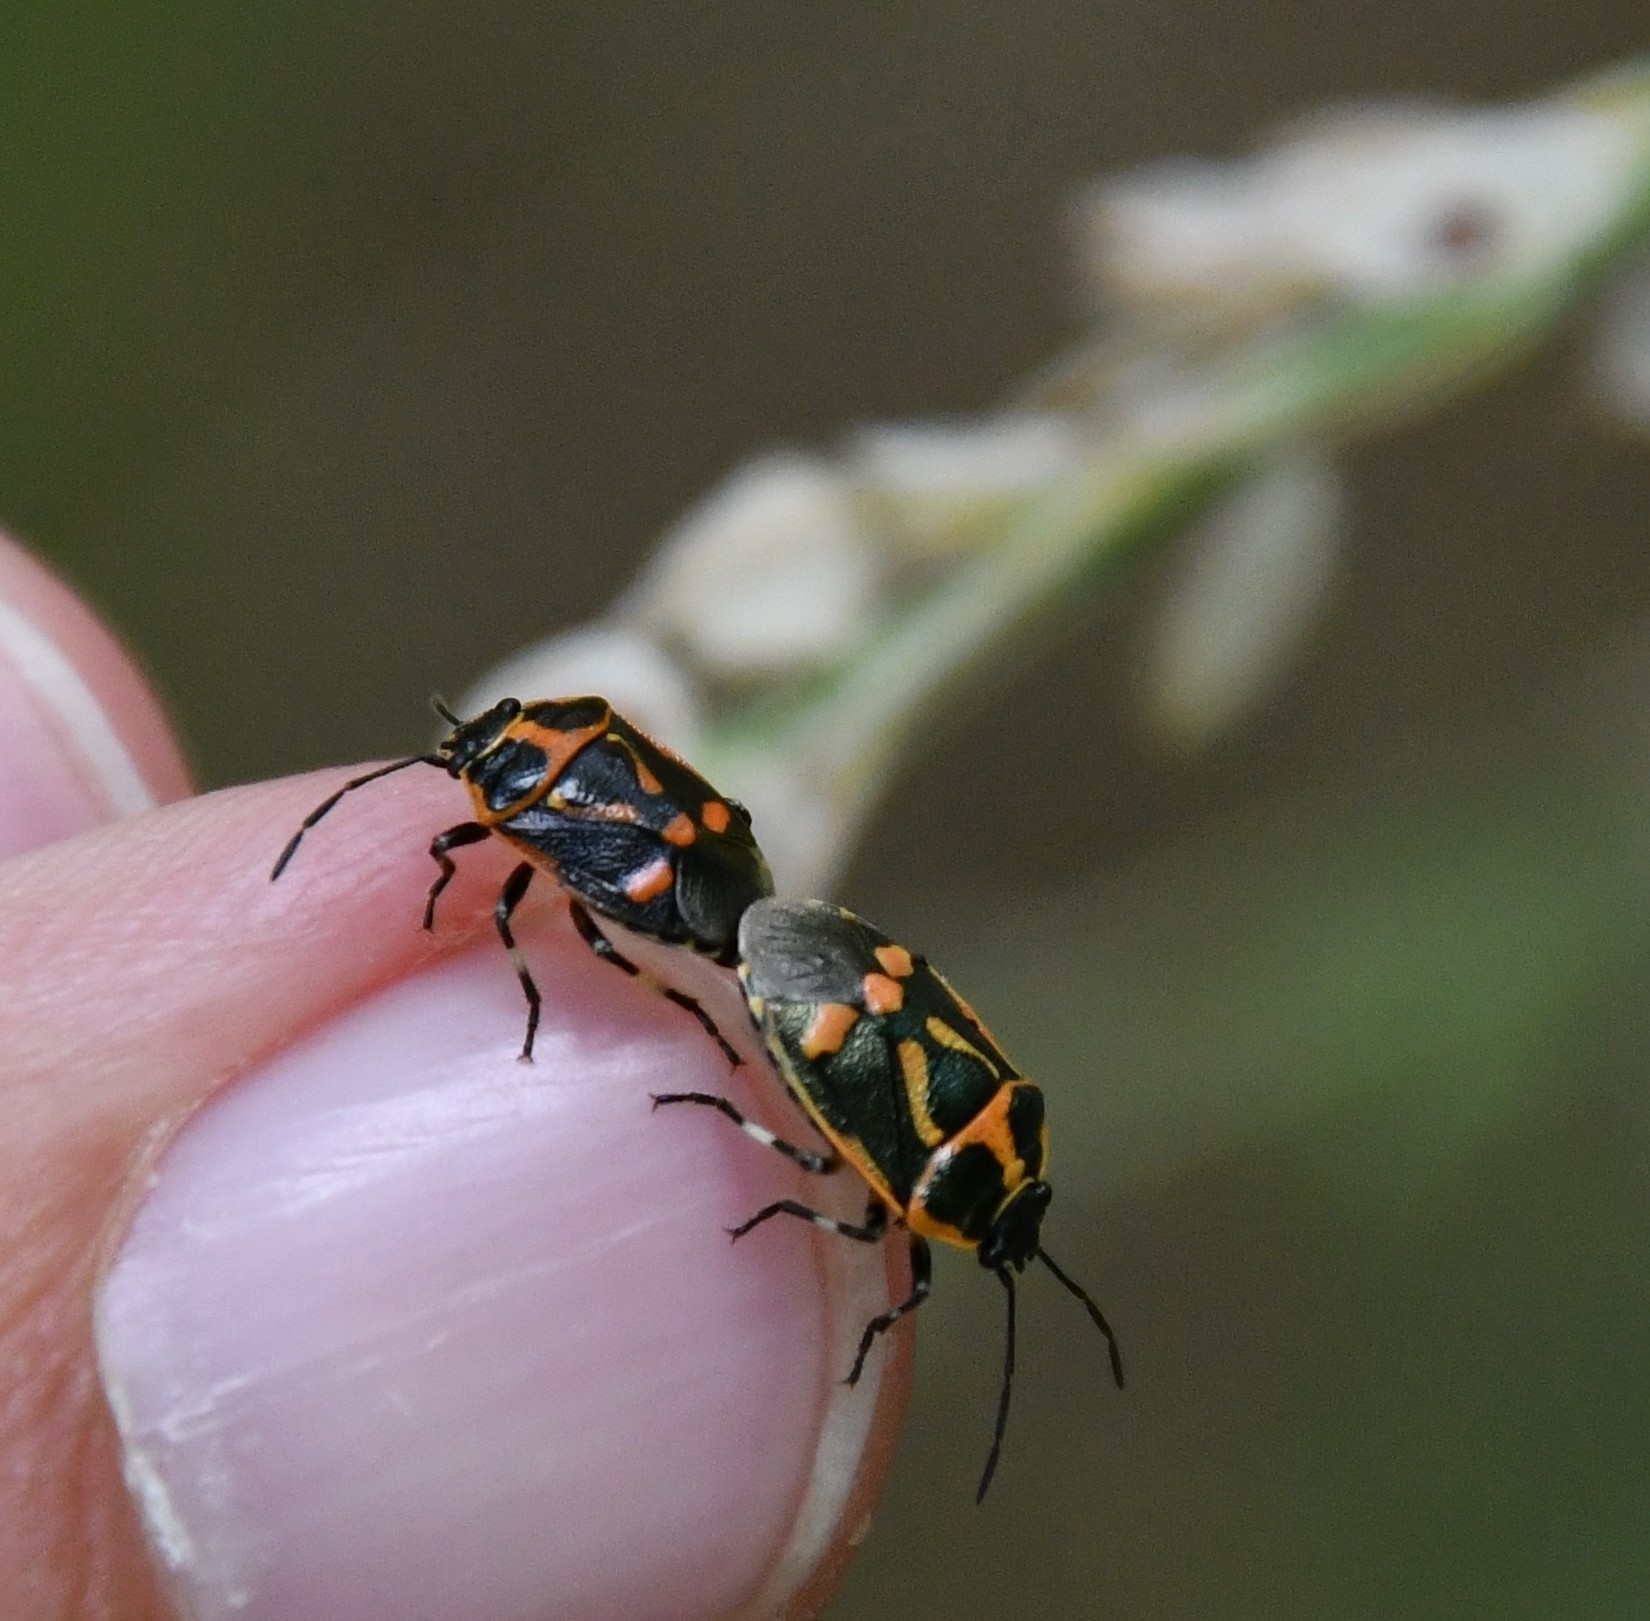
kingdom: Animalia
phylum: Arthropoda
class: Insecta
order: Hemiptera
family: Pentatomidae
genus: Eurydema
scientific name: Eurydema oleracea
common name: Cabbage bug
